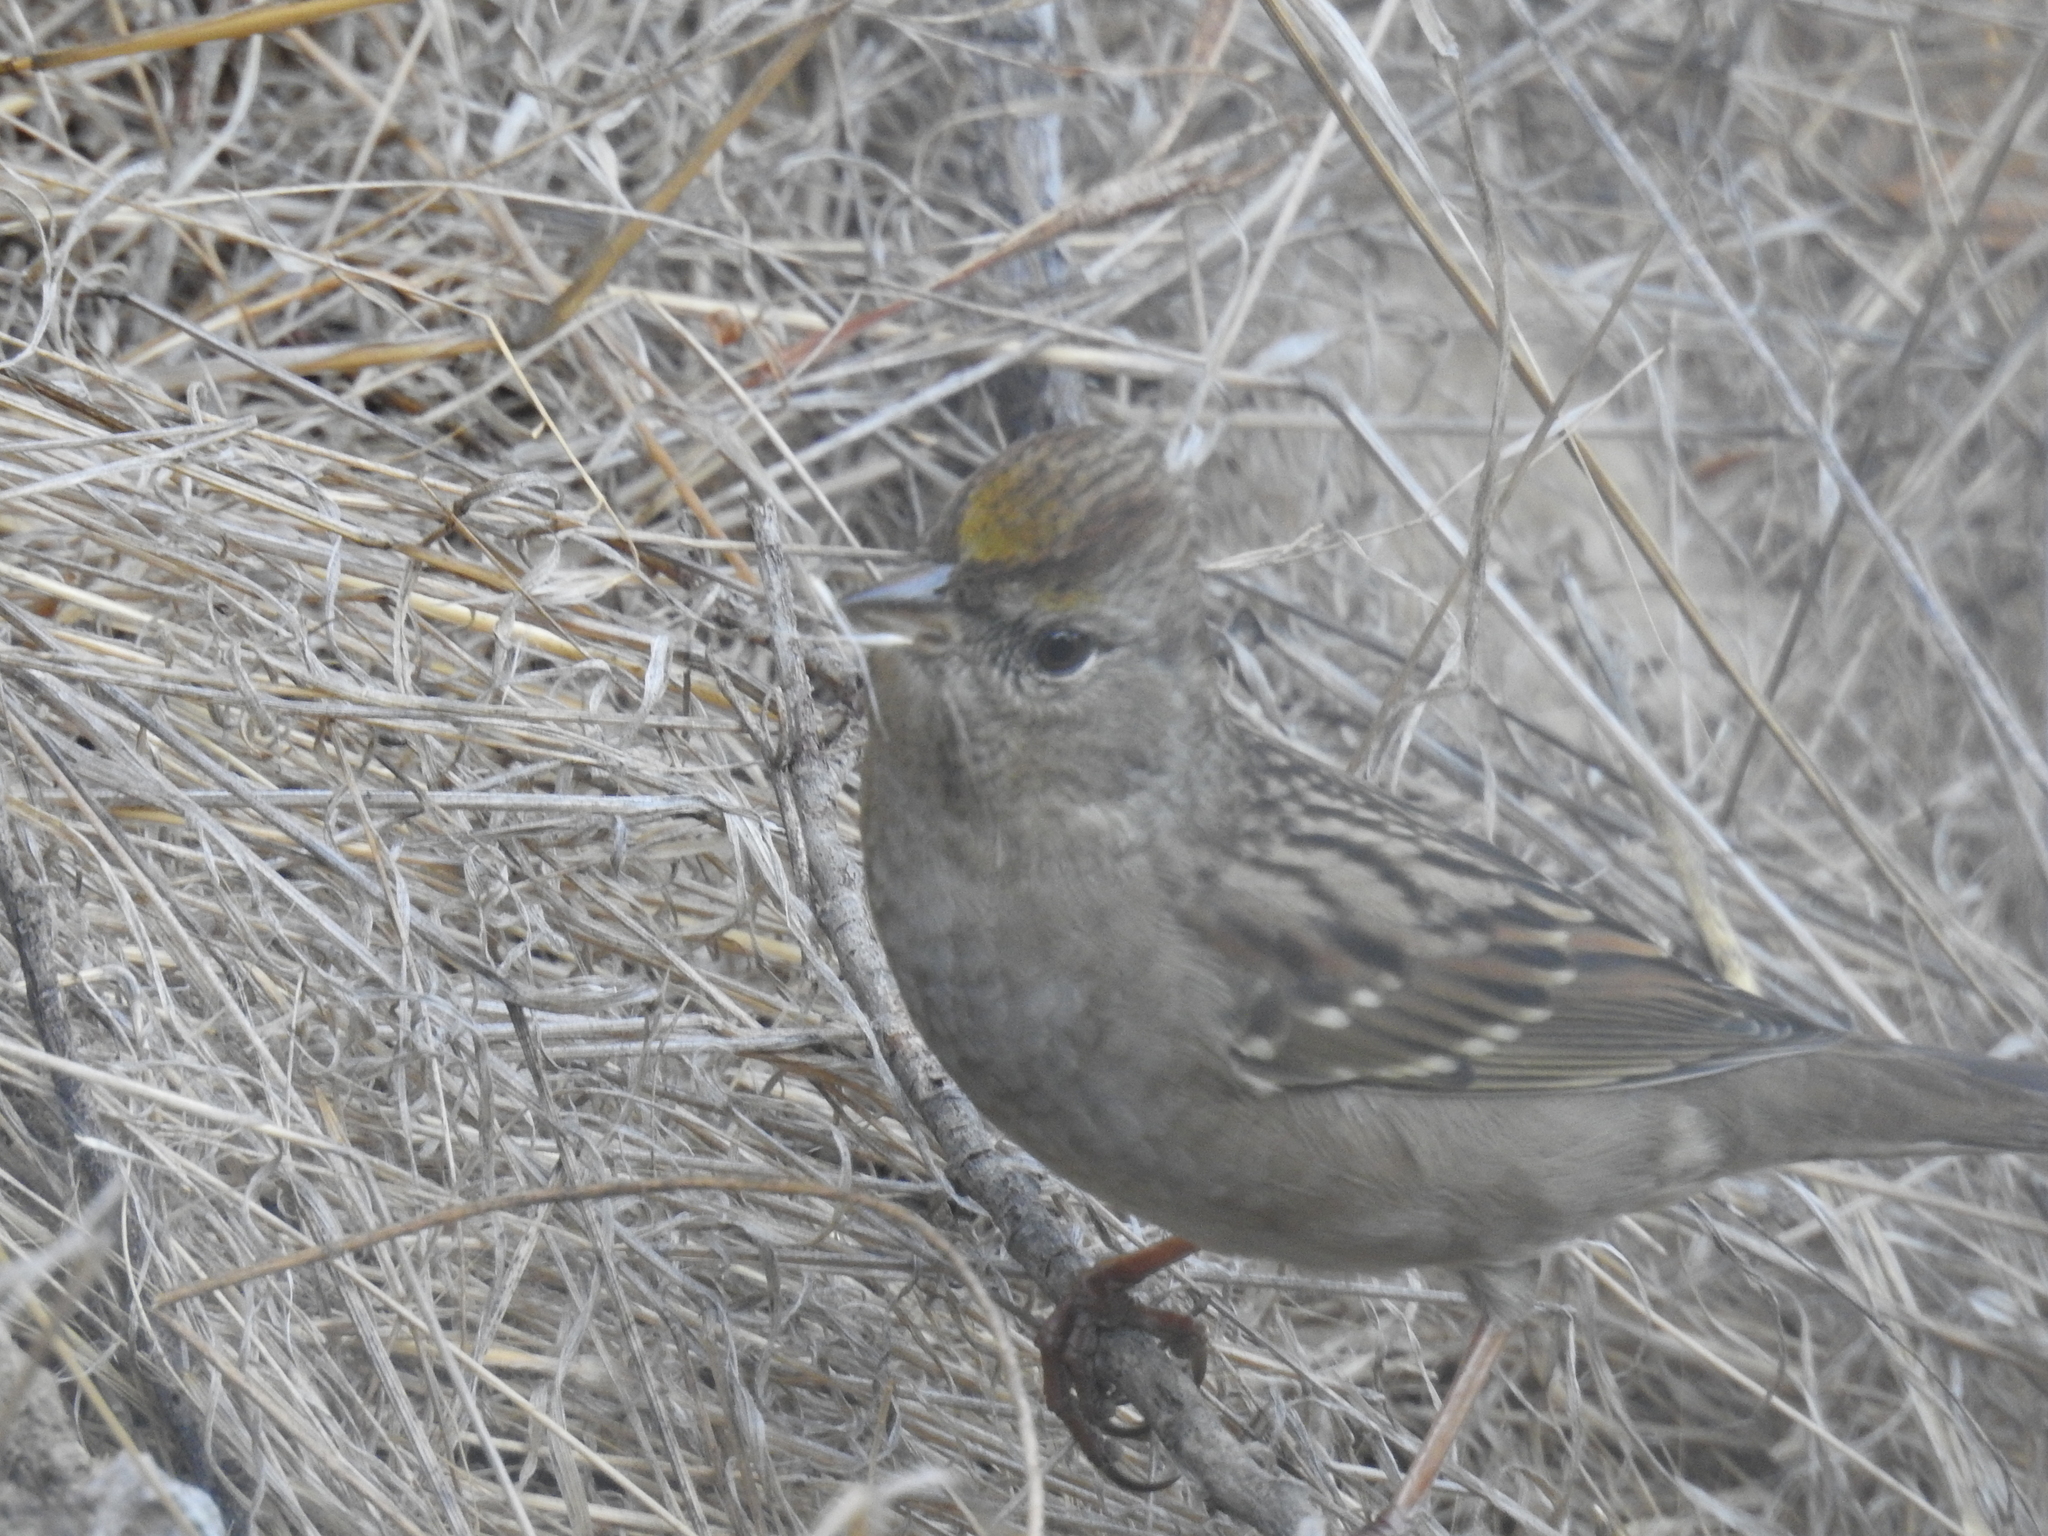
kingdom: Animalia
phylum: Chordata
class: Aves
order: Passeriformes
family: Passerellidae
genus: Zonotrichia
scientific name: Zonotrichia atricapilla
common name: Golden-crowned sparrow
